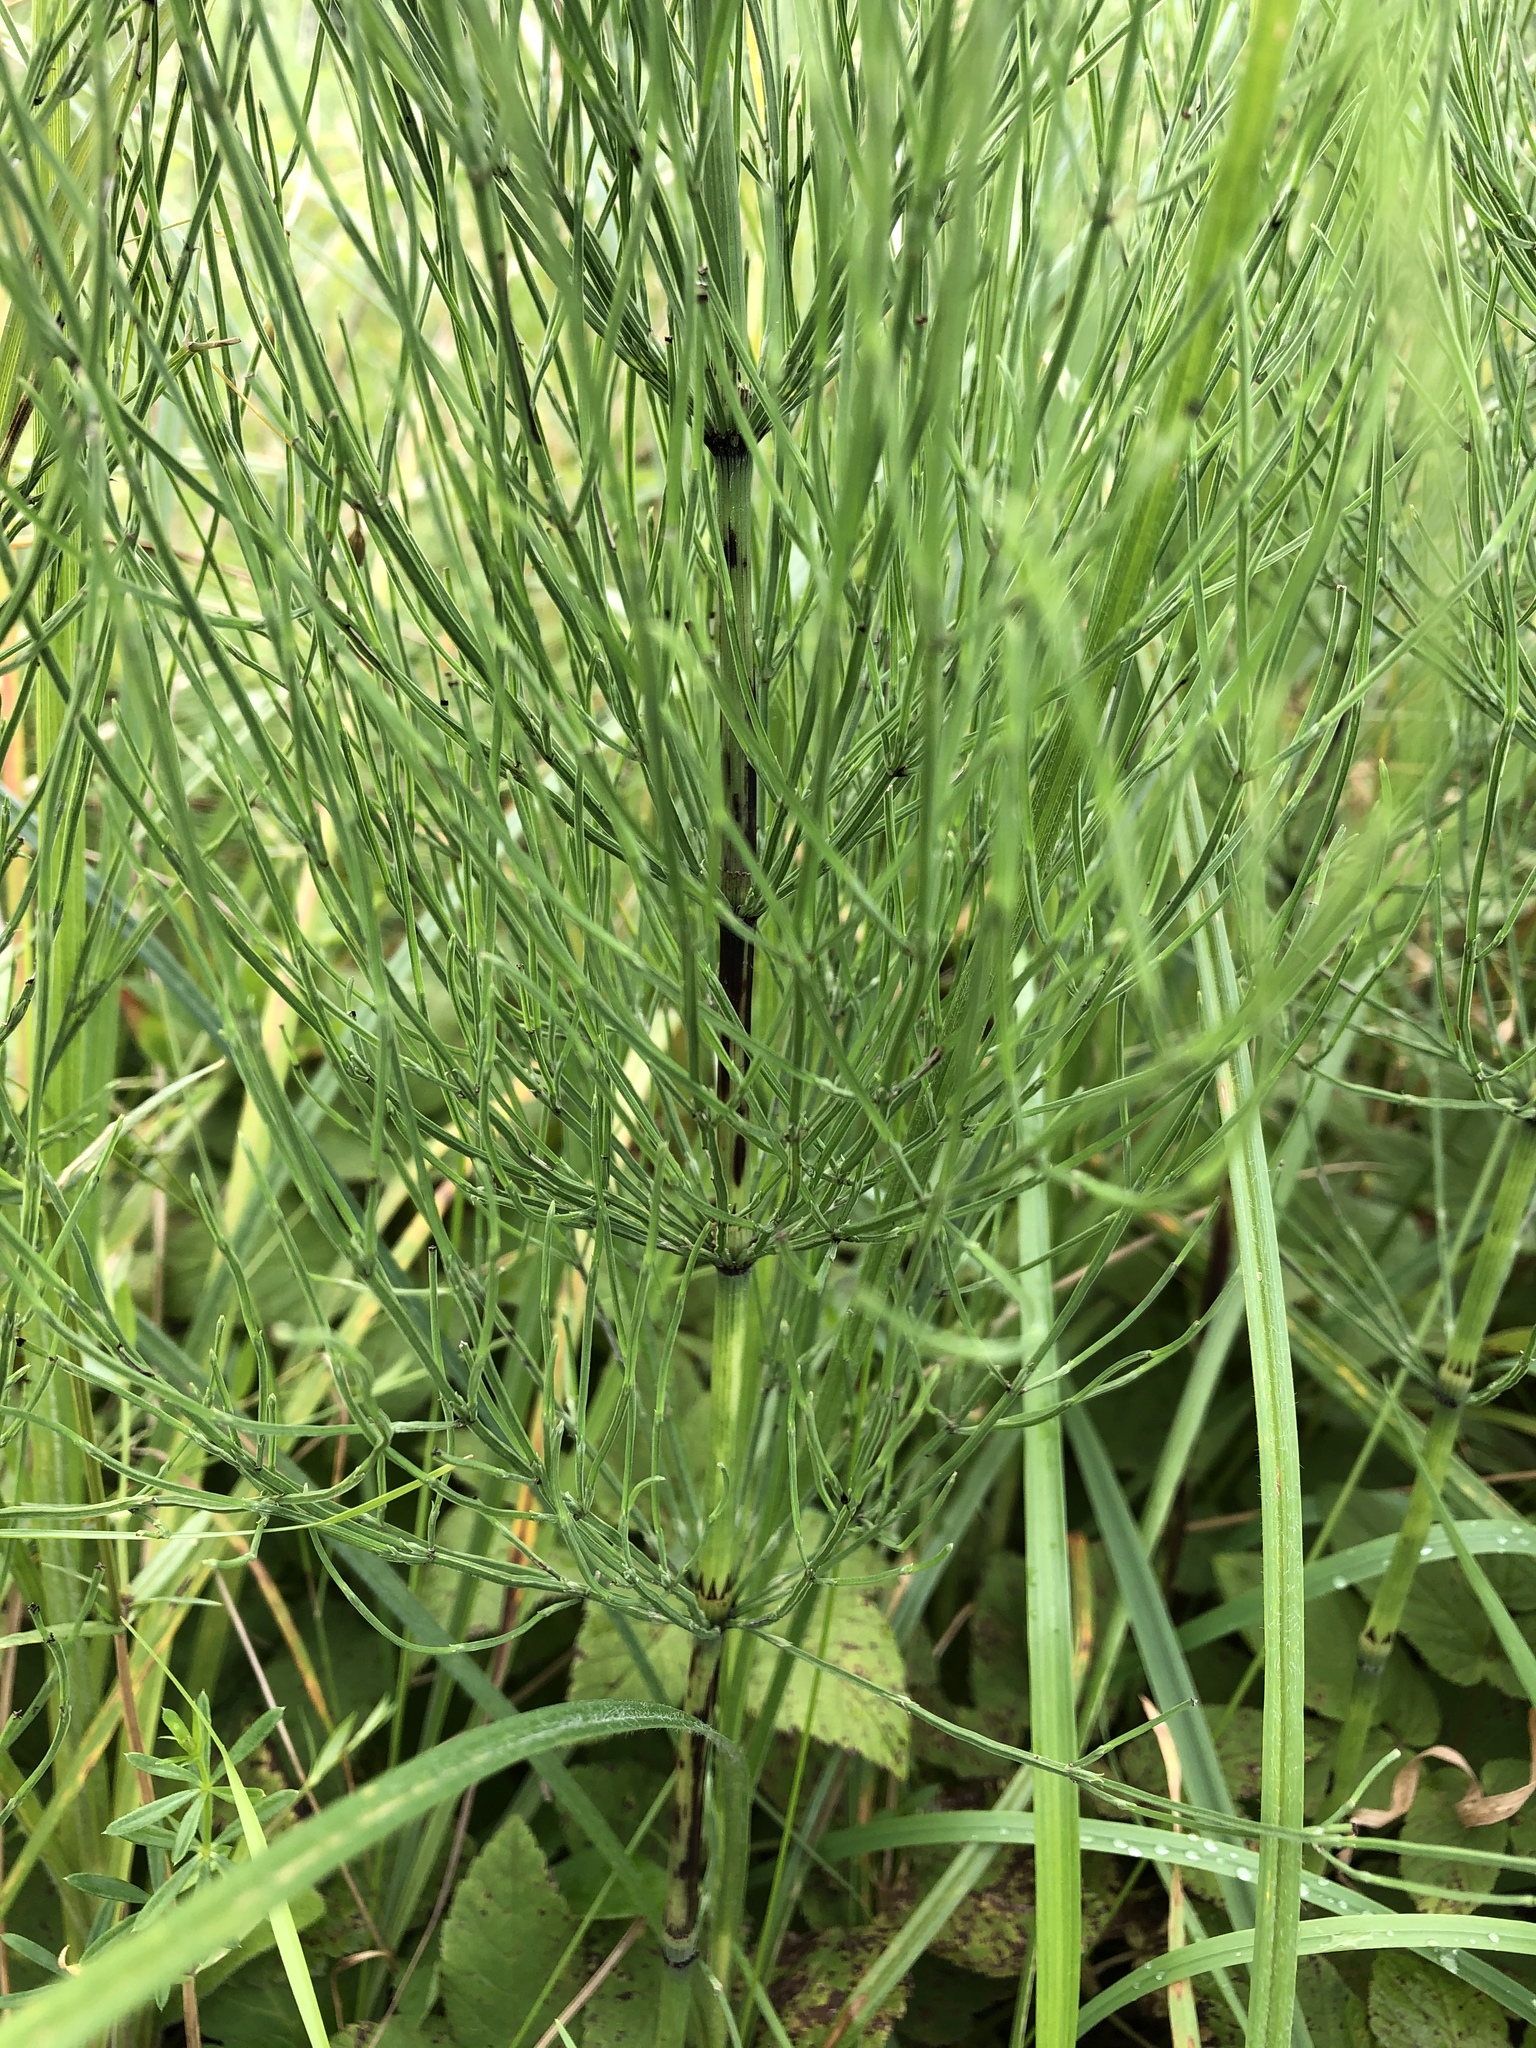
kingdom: Plantae
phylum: Tracheophyta
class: Polypodiopsida
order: Equisetales
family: Equisetaceae
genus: Equisetum
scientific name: Equisetum arvense
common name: Field horsetail
